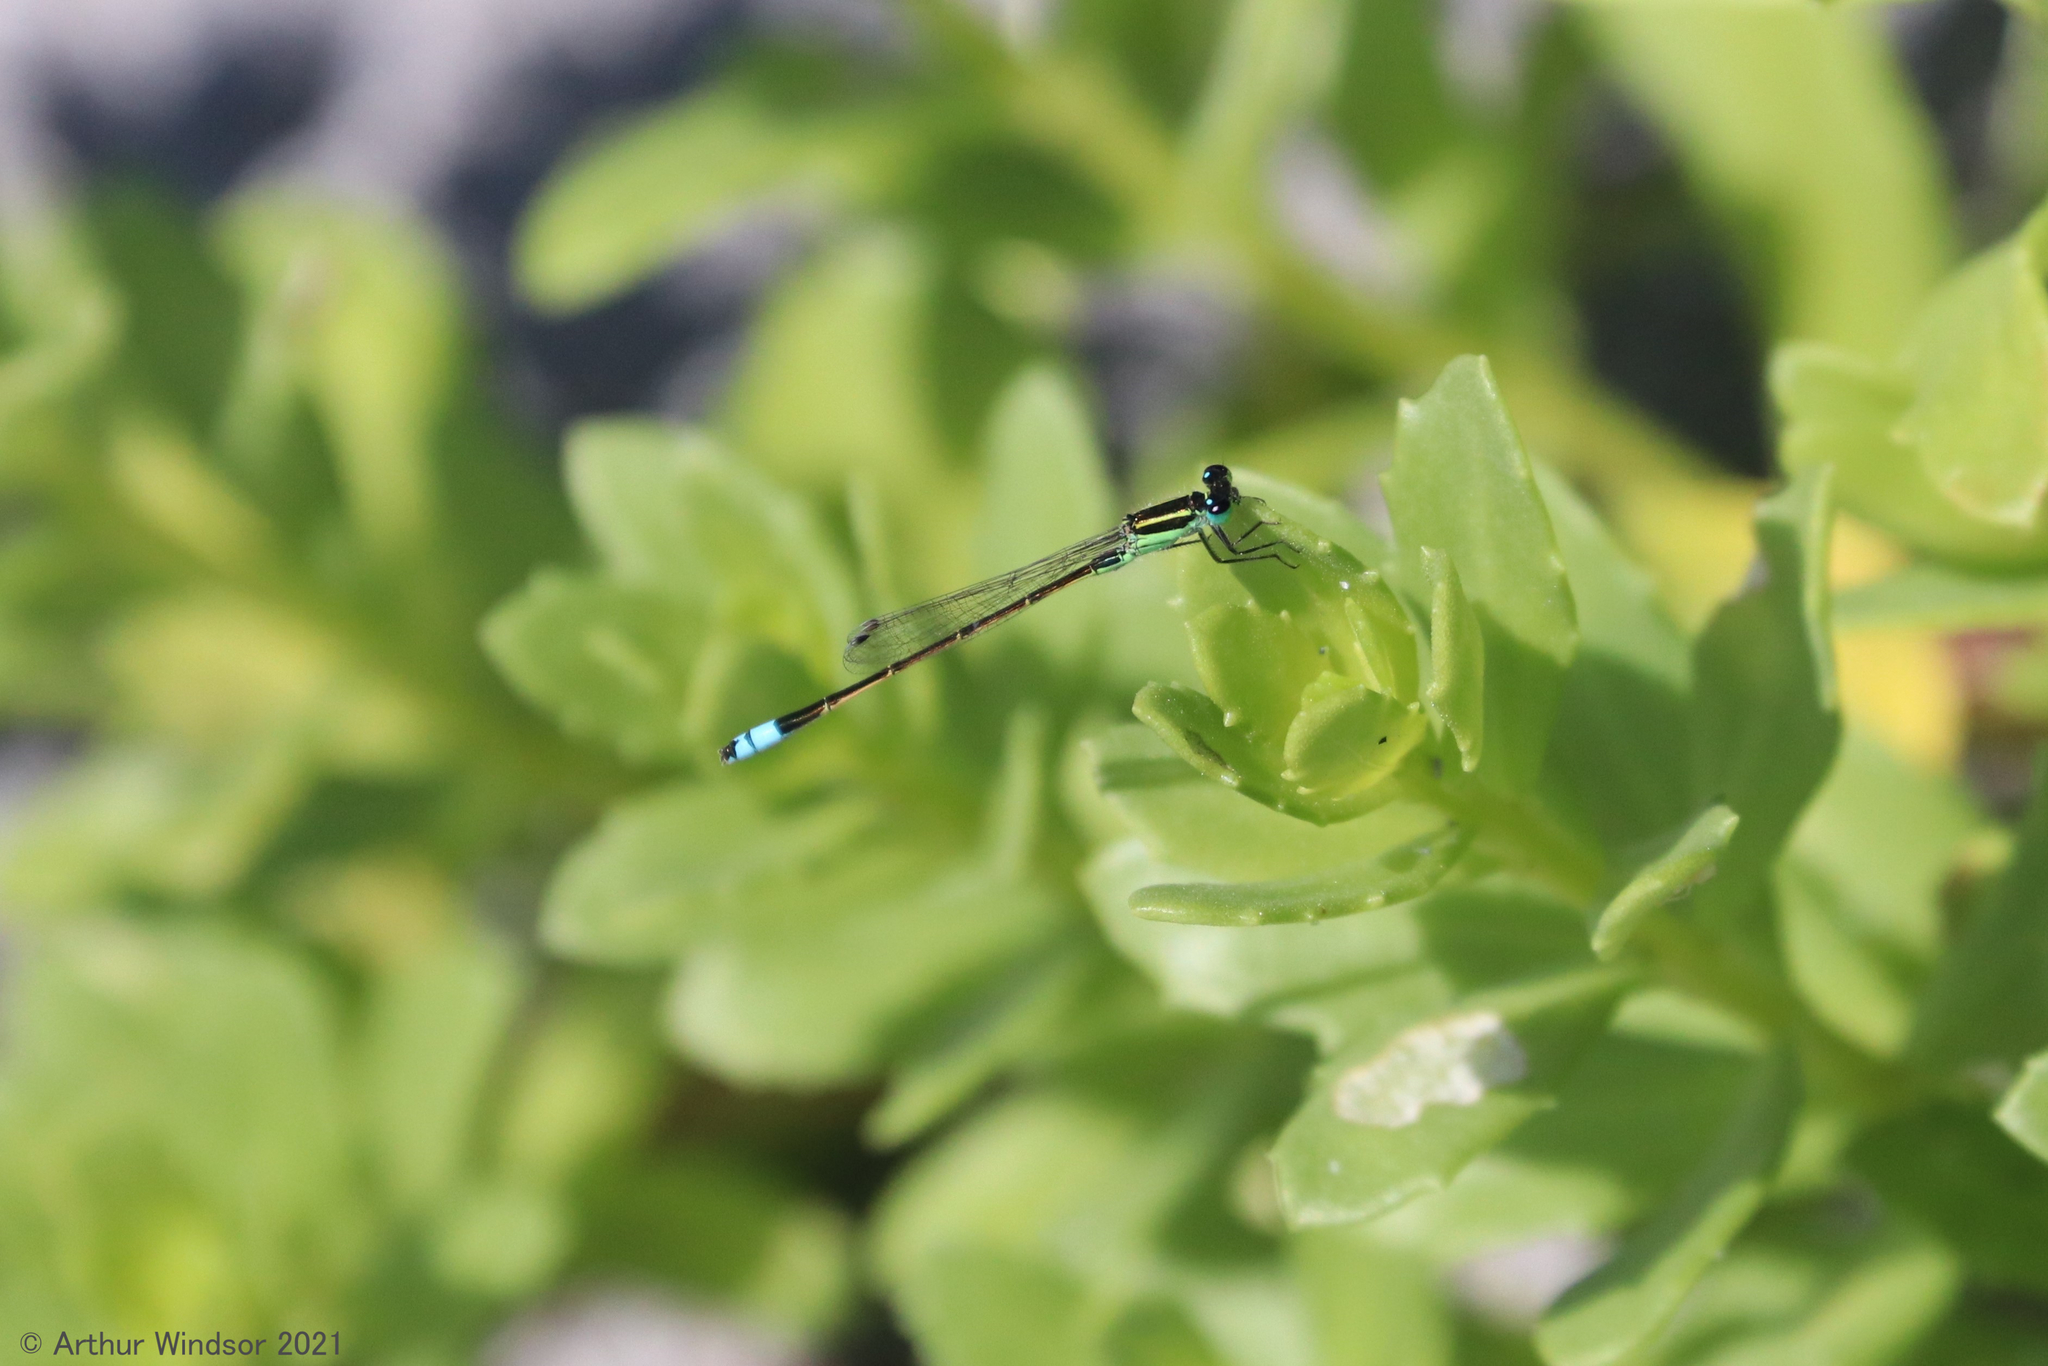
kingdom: Animalia
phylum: Arthropoda
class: Insecta
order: Odonata
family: Coenagrionidae
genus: Ischnura
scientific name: Ischnura ramburii
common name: Rambur's forktail
